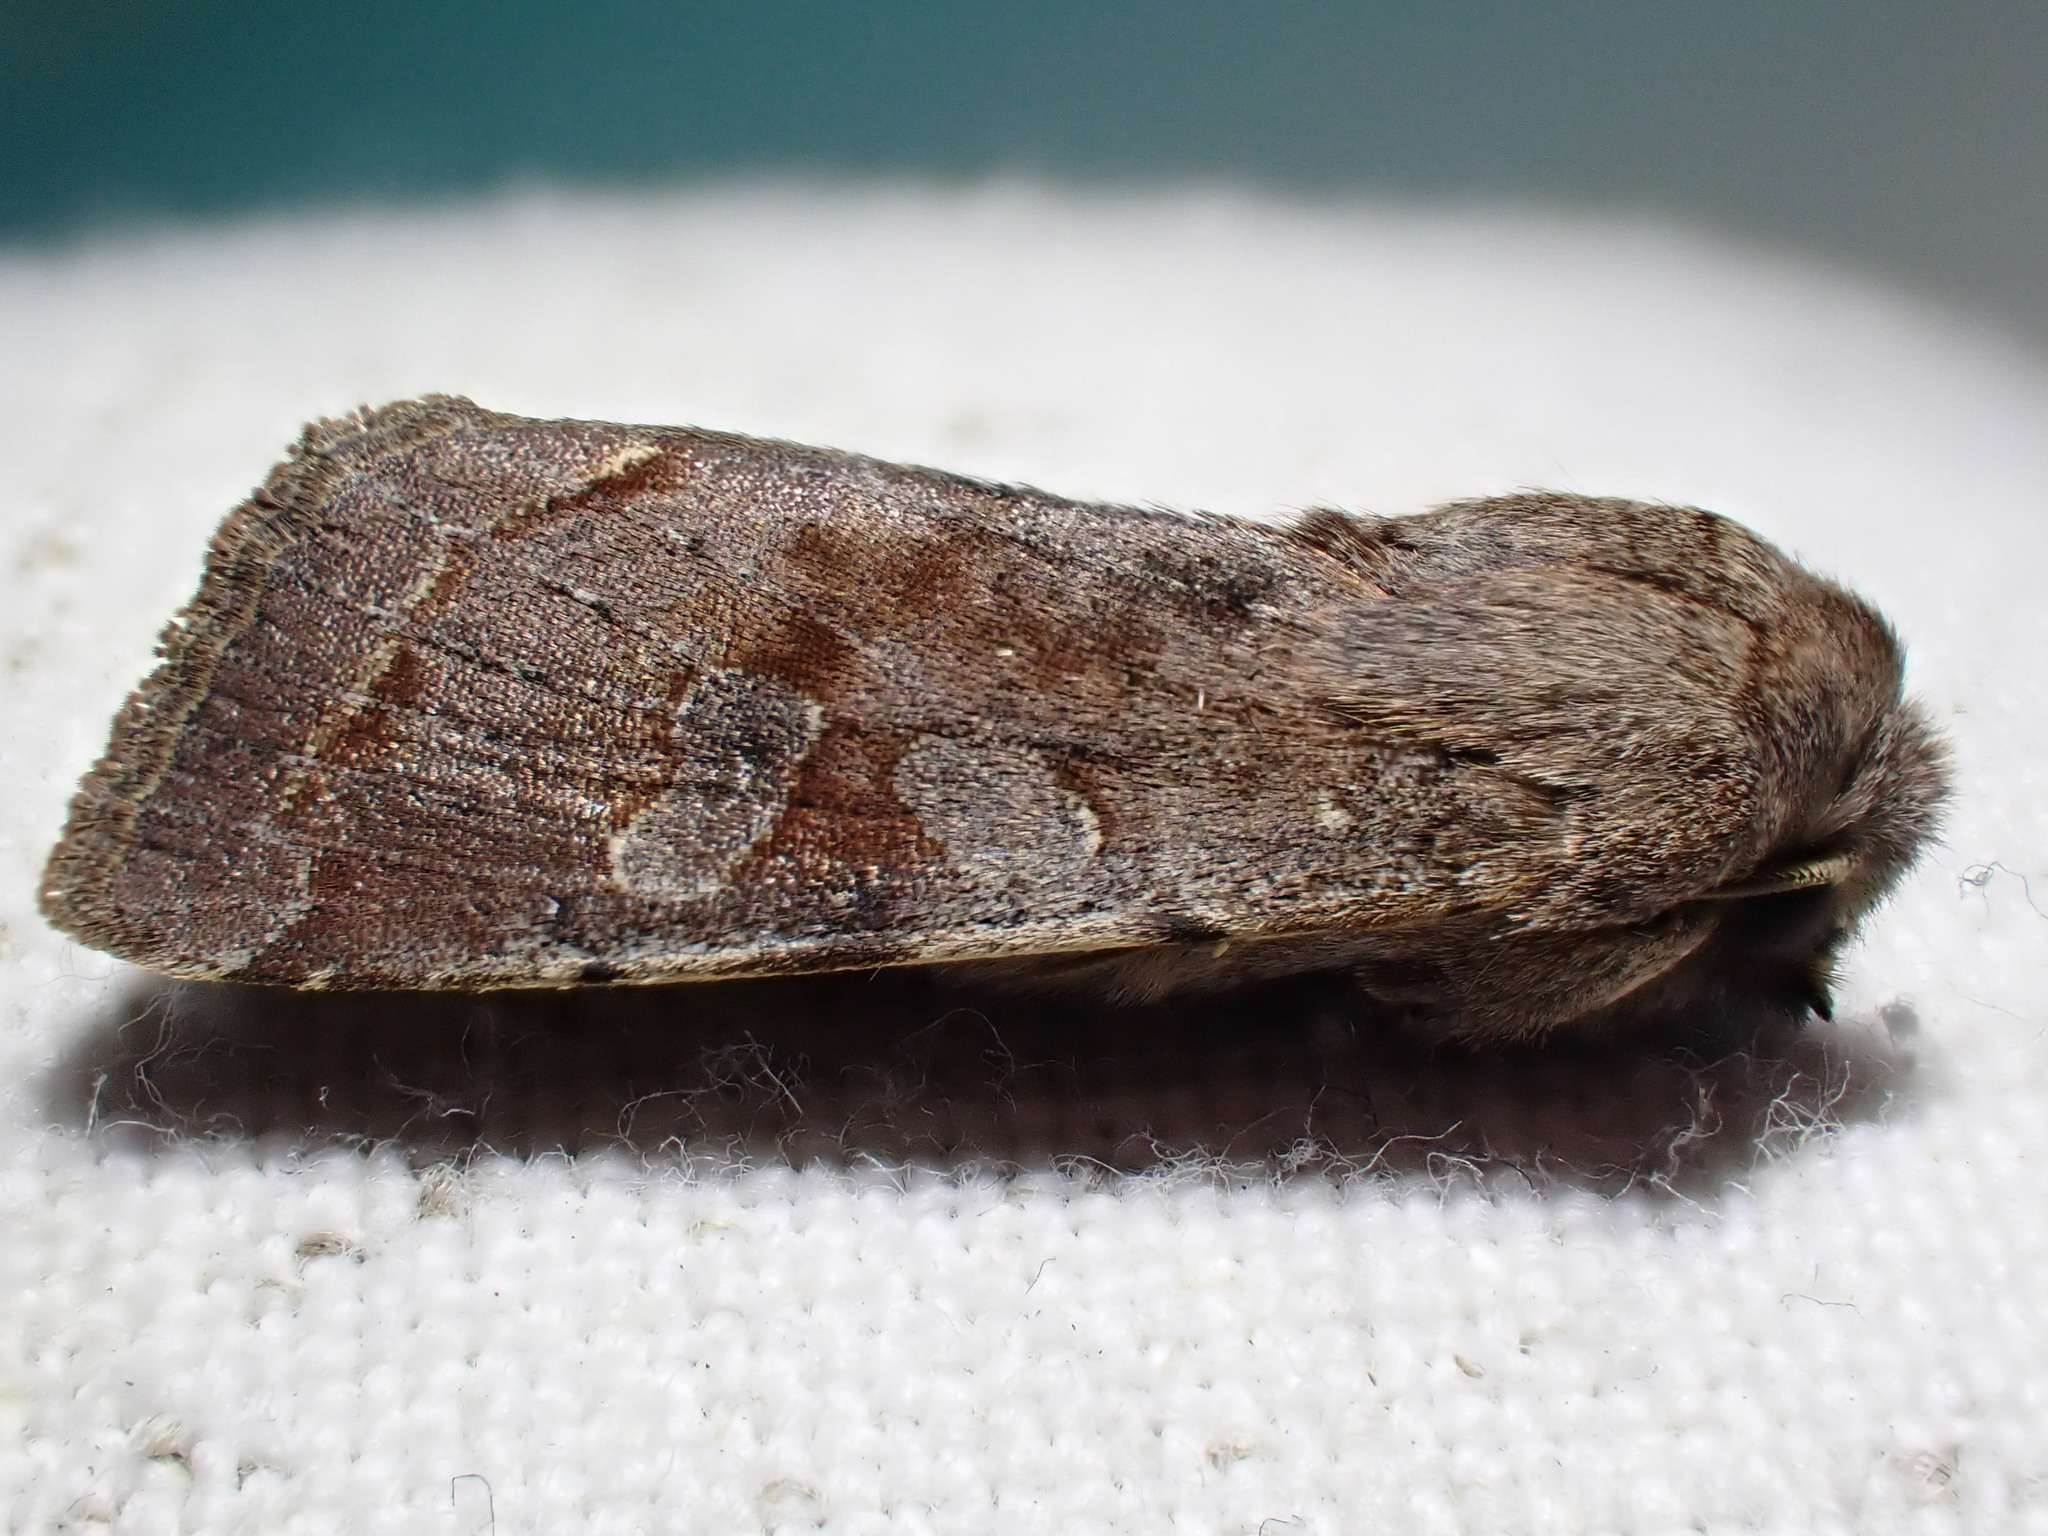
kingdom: Animalia
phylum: Arthropoda
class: Insecta
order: Lepidoptera
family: Noctuidae
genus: Orthosia
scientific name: Orthosia incerta
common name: Clouded drab
